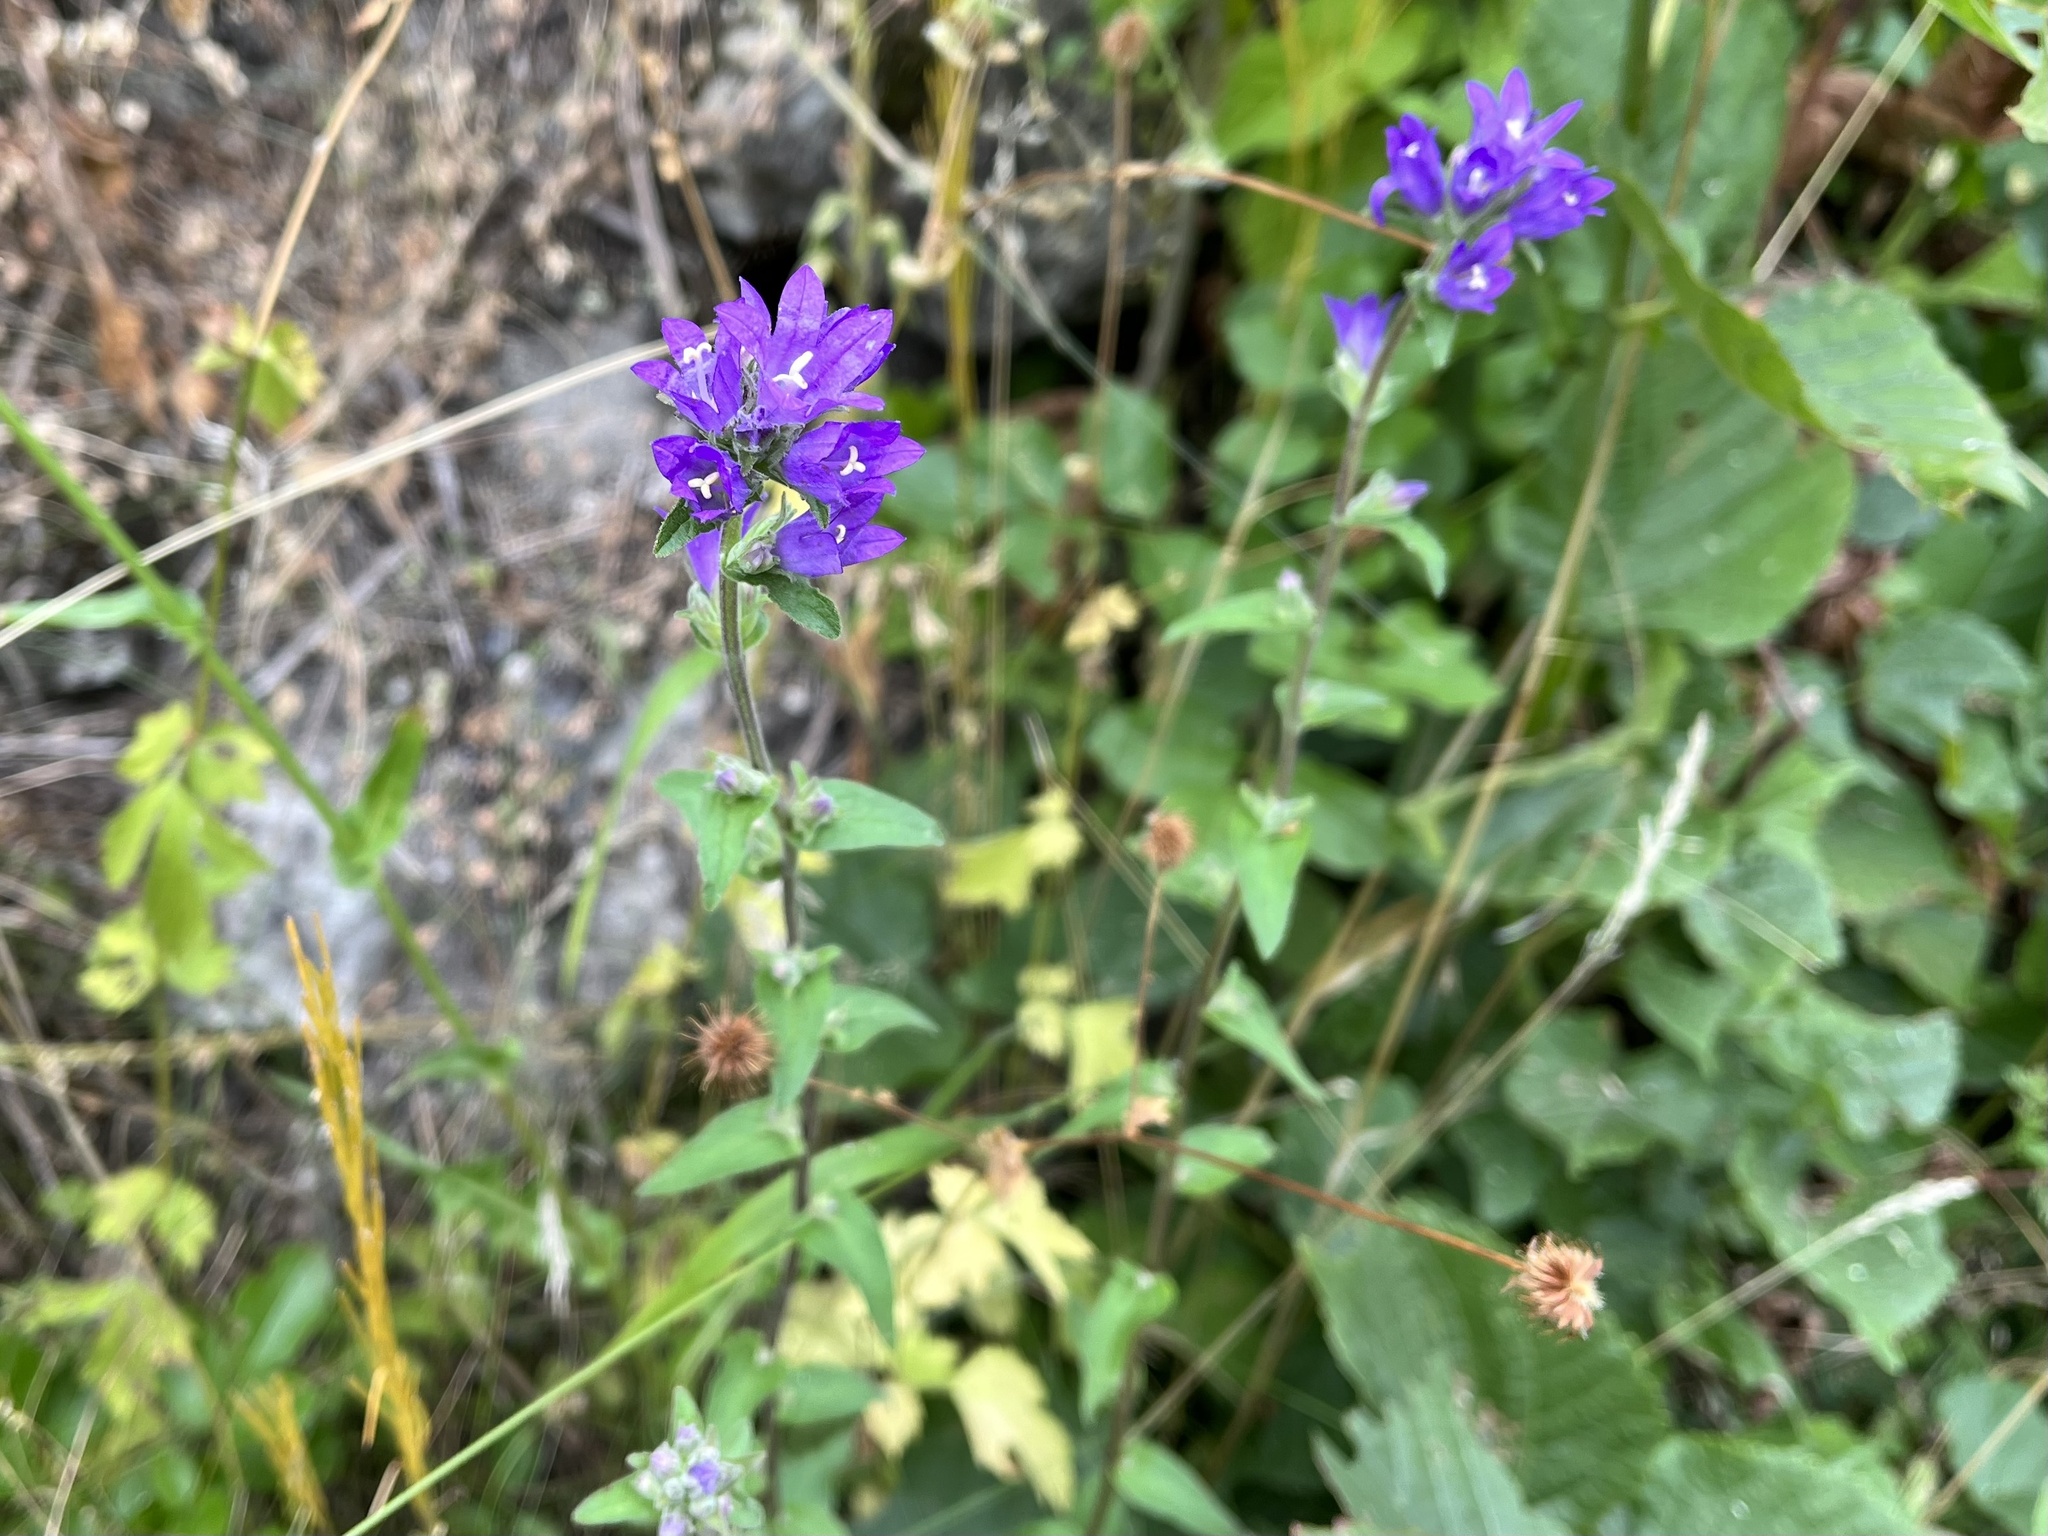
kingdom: Plantae
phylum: Tracheophyta
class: Magnoliopsida
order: Asterales
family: Campanulaceae
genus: Campanula
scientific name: Campanula glomerata
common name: Clustered bellflower
